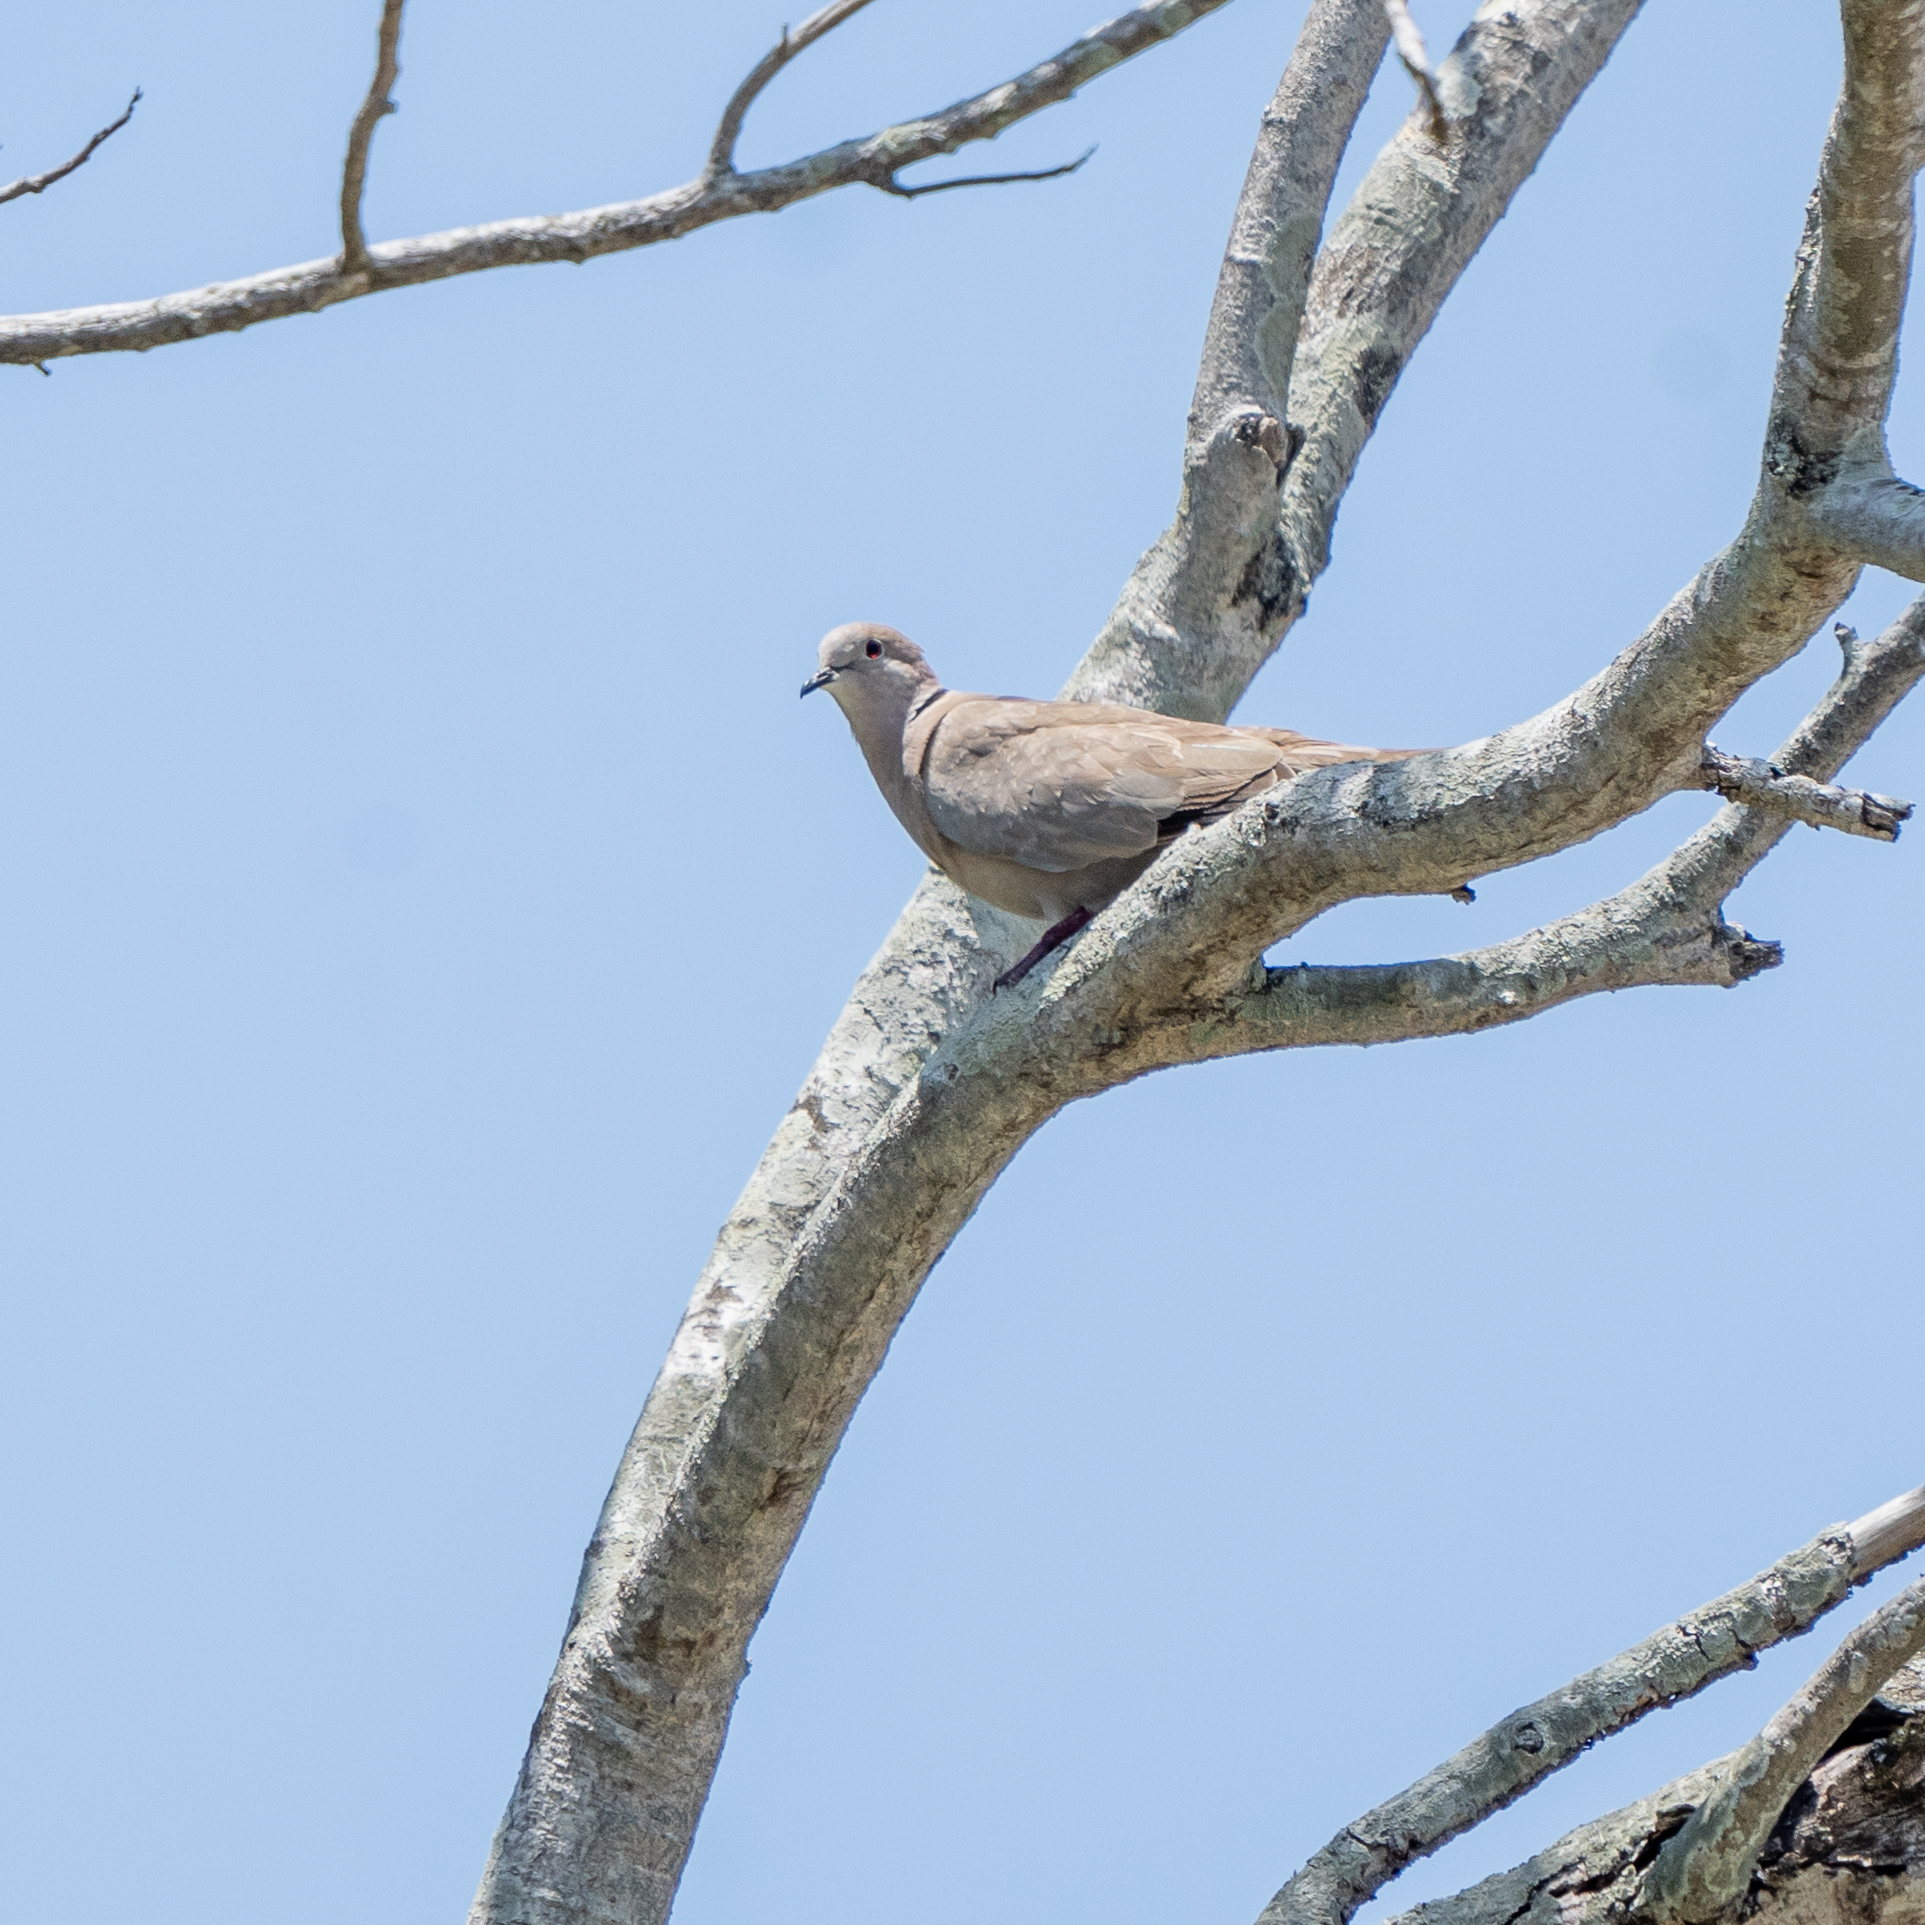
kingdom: Animalia
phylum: Chordata
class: Aves
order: Columbiformes
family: Columbidae
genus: Streptopelia
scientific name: Streptopelia decaocto
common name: Eurasian collared dove
